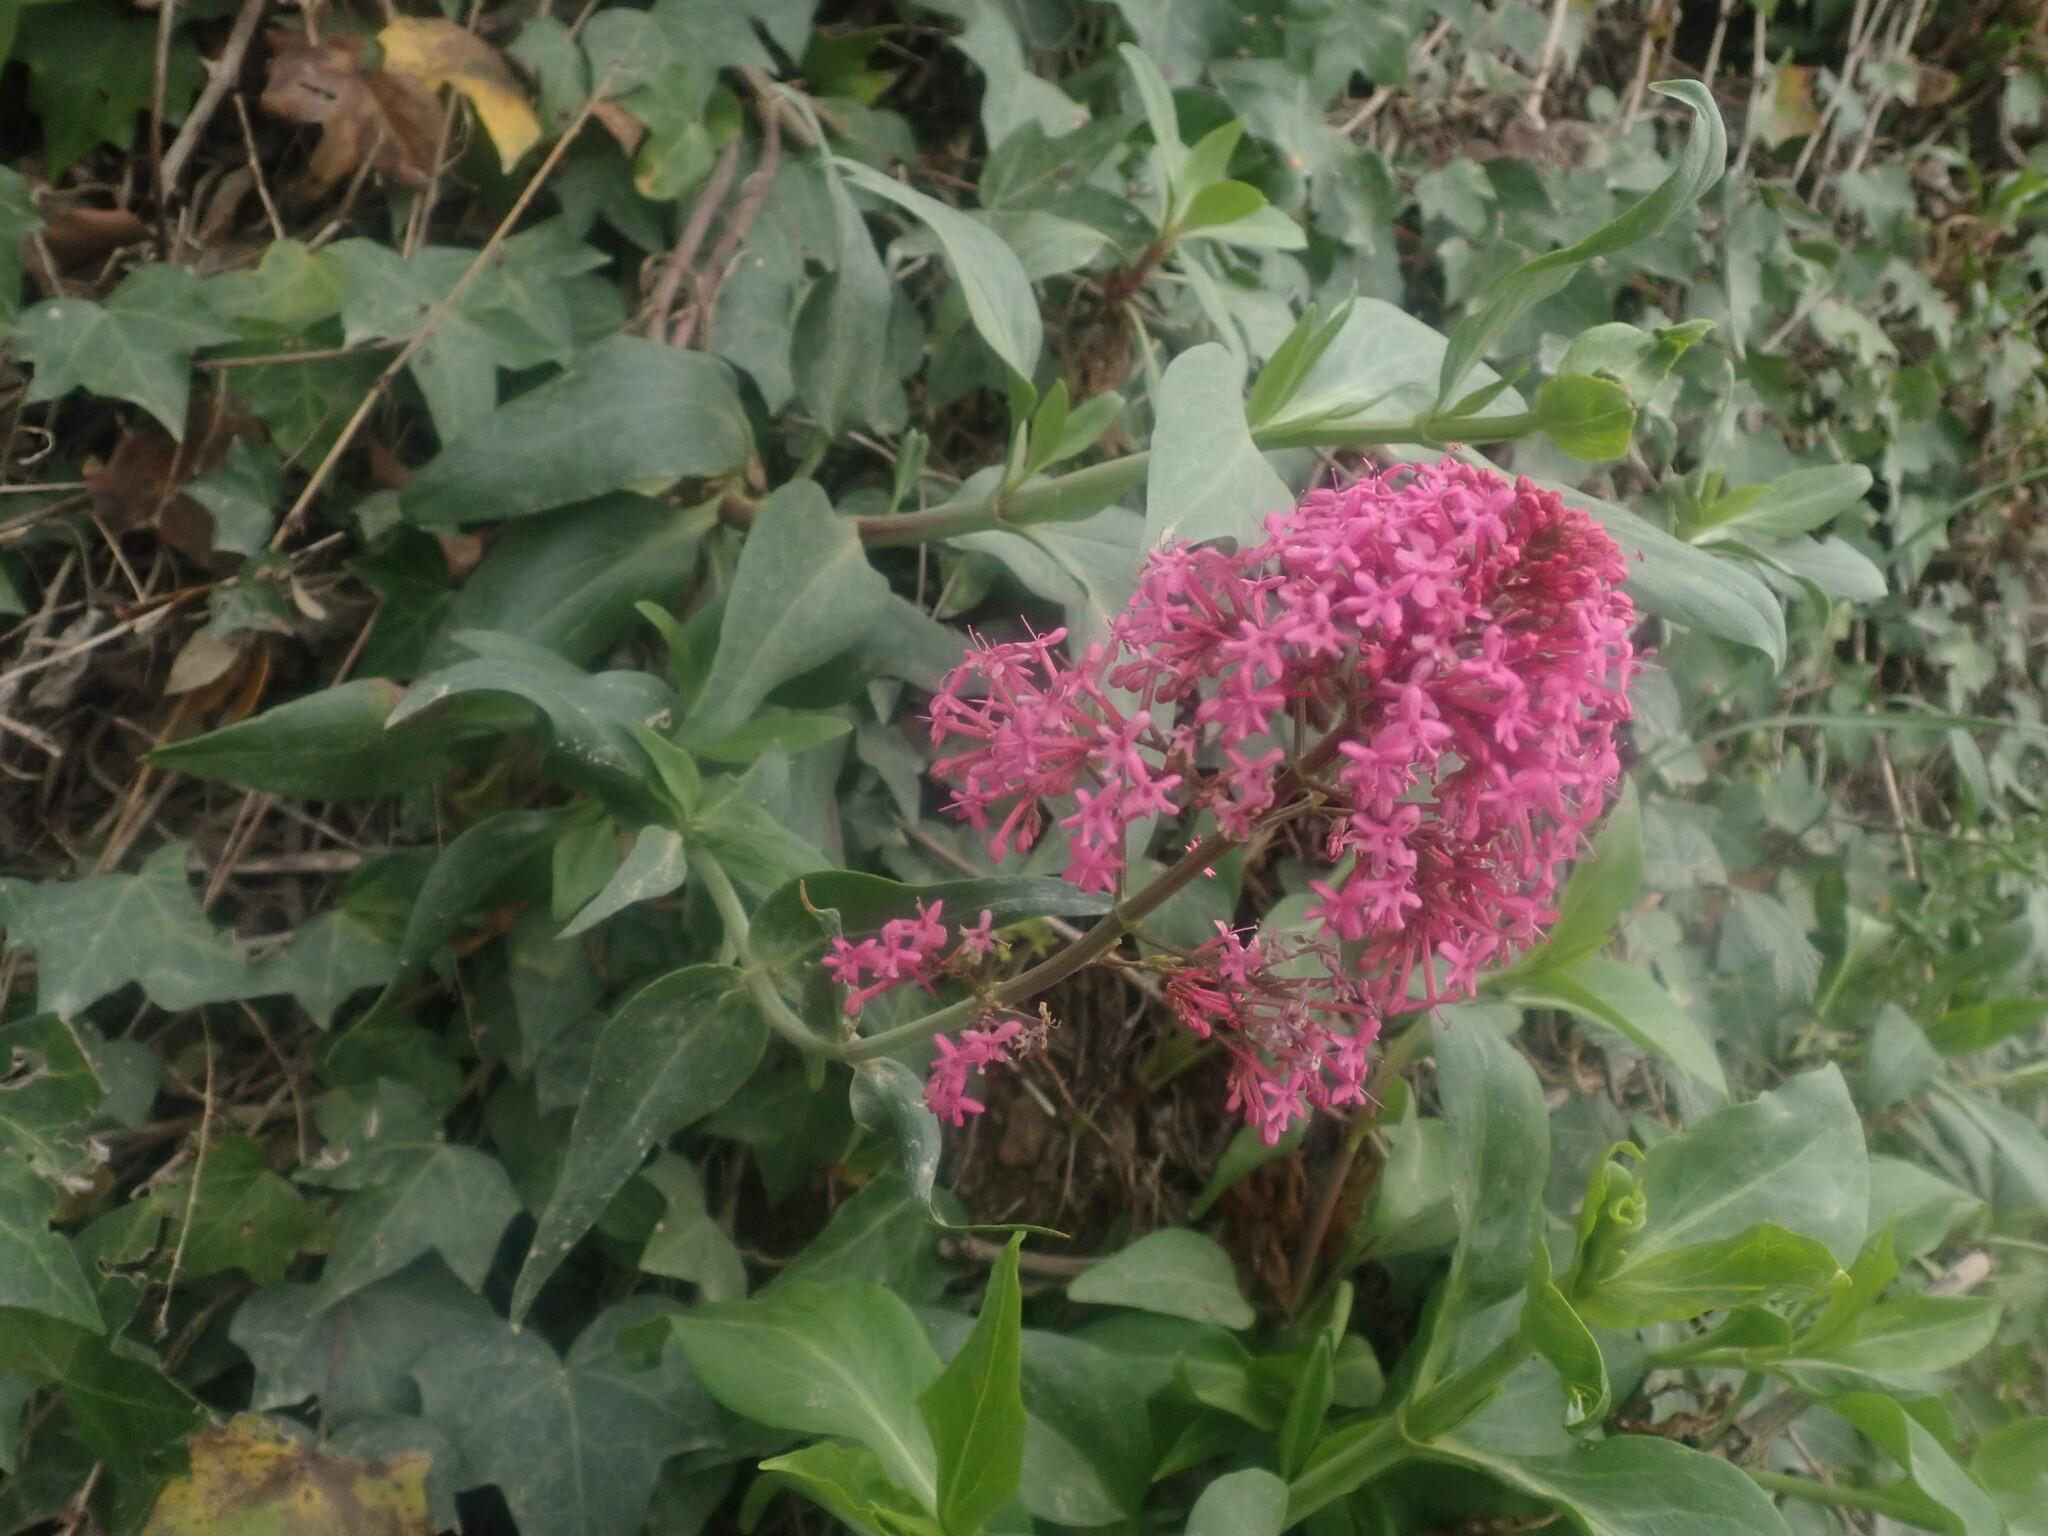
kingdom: Plantae
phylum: Tracheophyta
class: Magnoliopsida
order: Dipsacales
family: Caprifoliaceae
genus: Centranthus
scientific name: Centranthus ruber
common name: Red valerian
